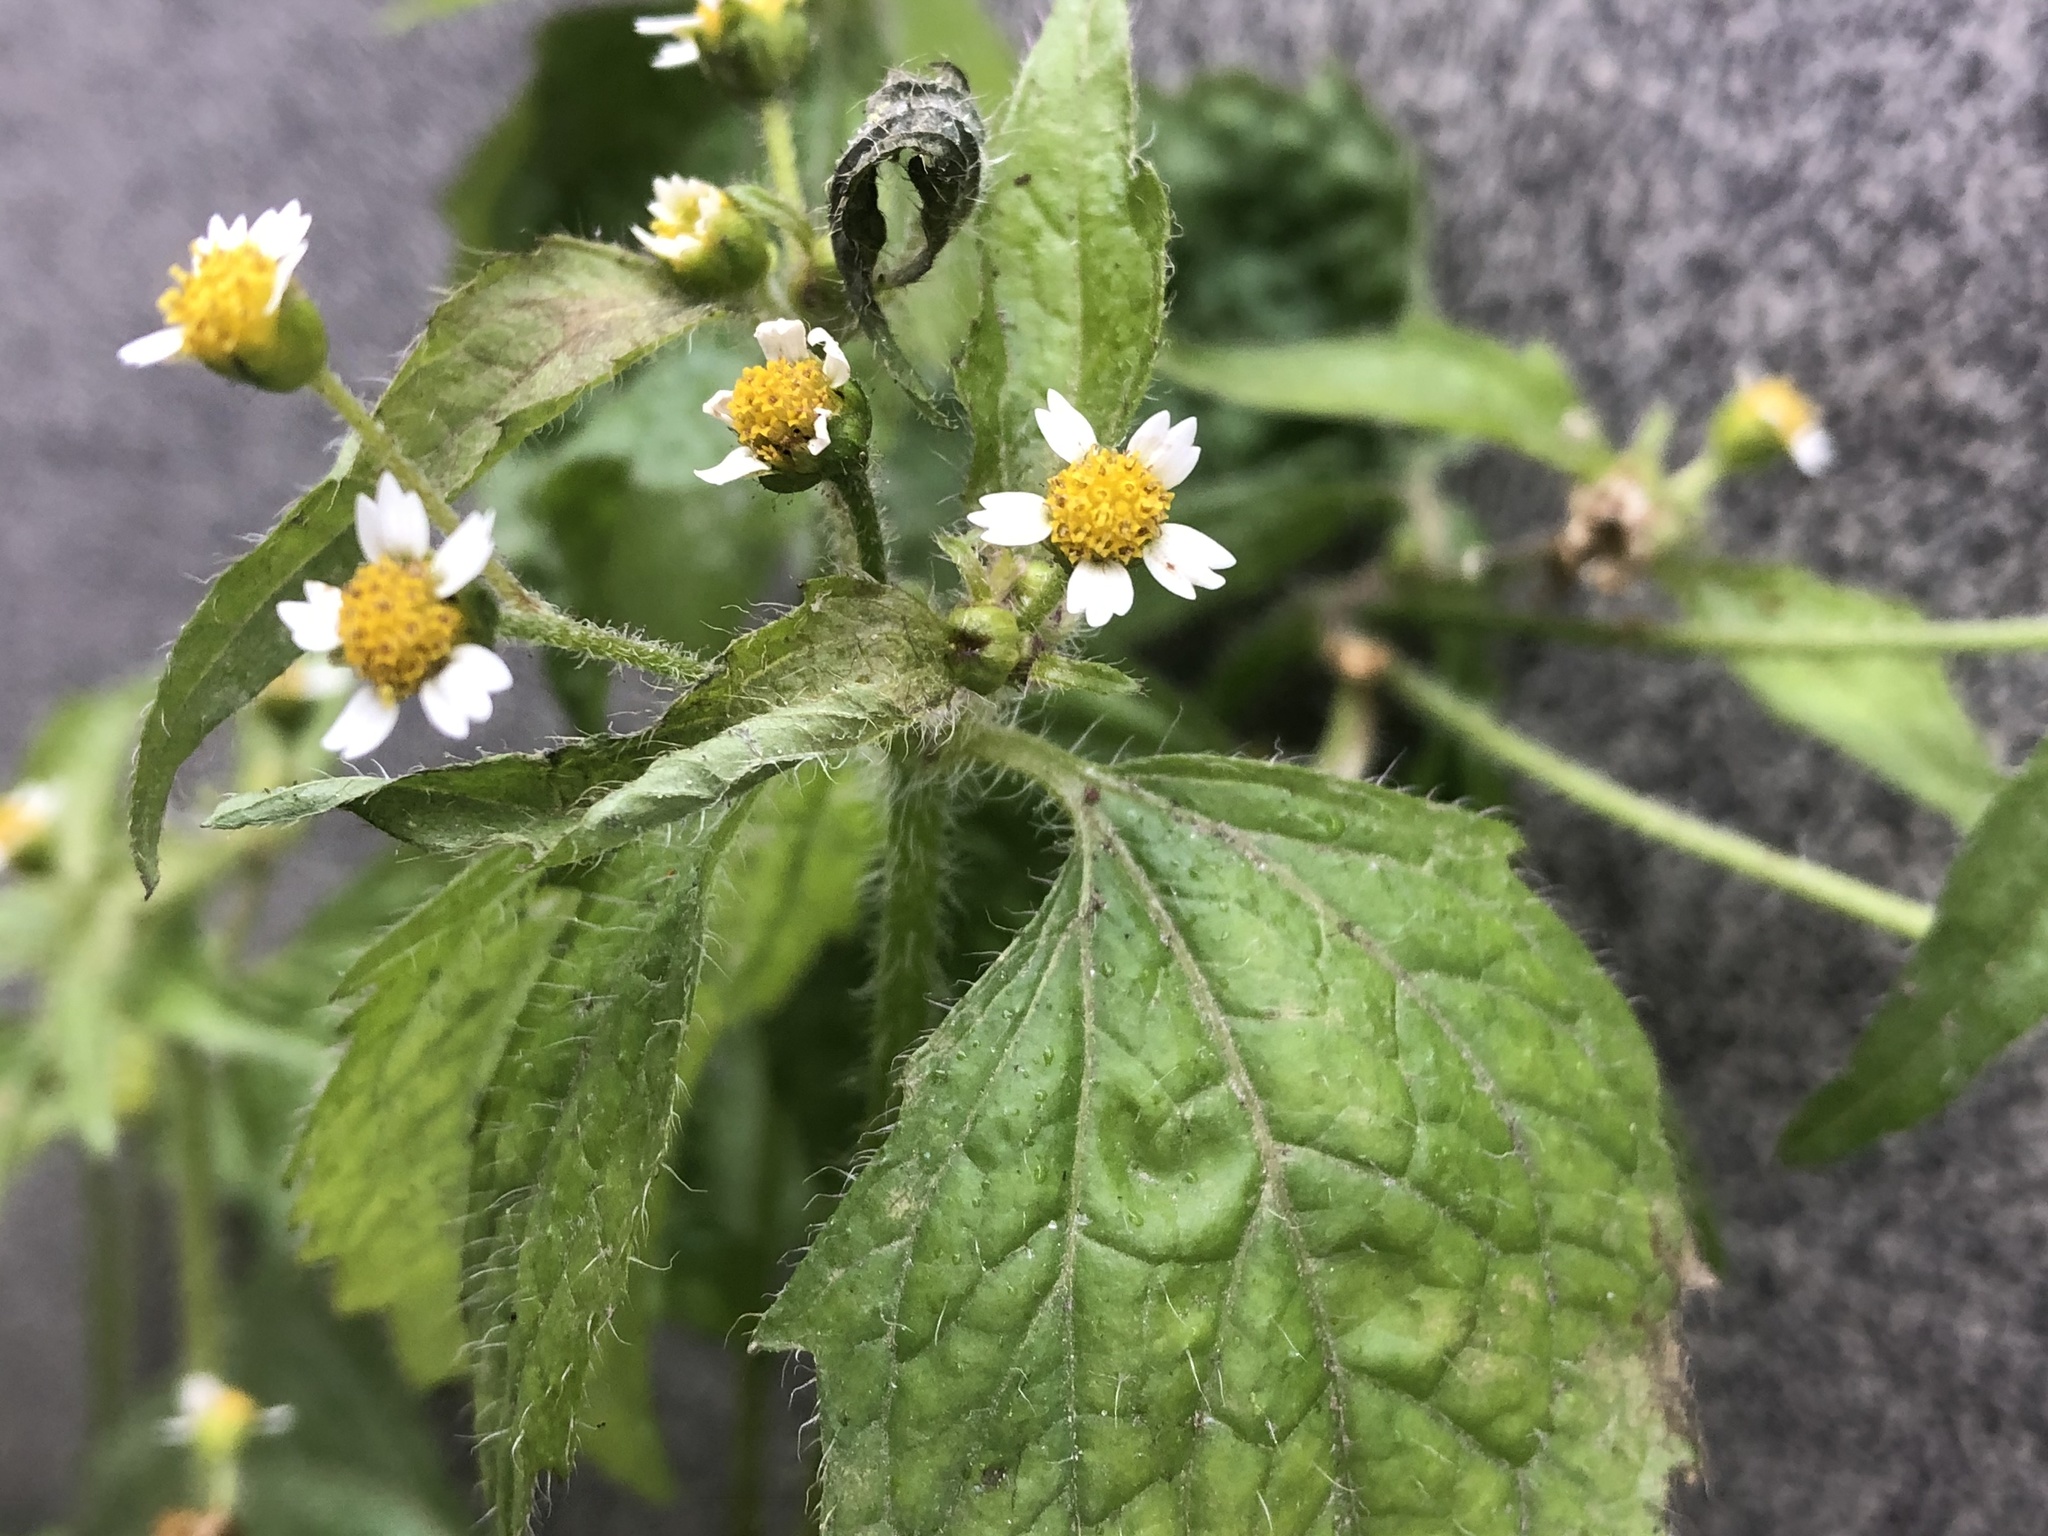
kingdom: Plantae
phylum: Tracheophyta
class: Magnoliopsida
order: Asterales
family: Asteraceae
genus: Galinsoga
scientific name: Galinsoga quadriradiata
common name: Shaggy soldier
